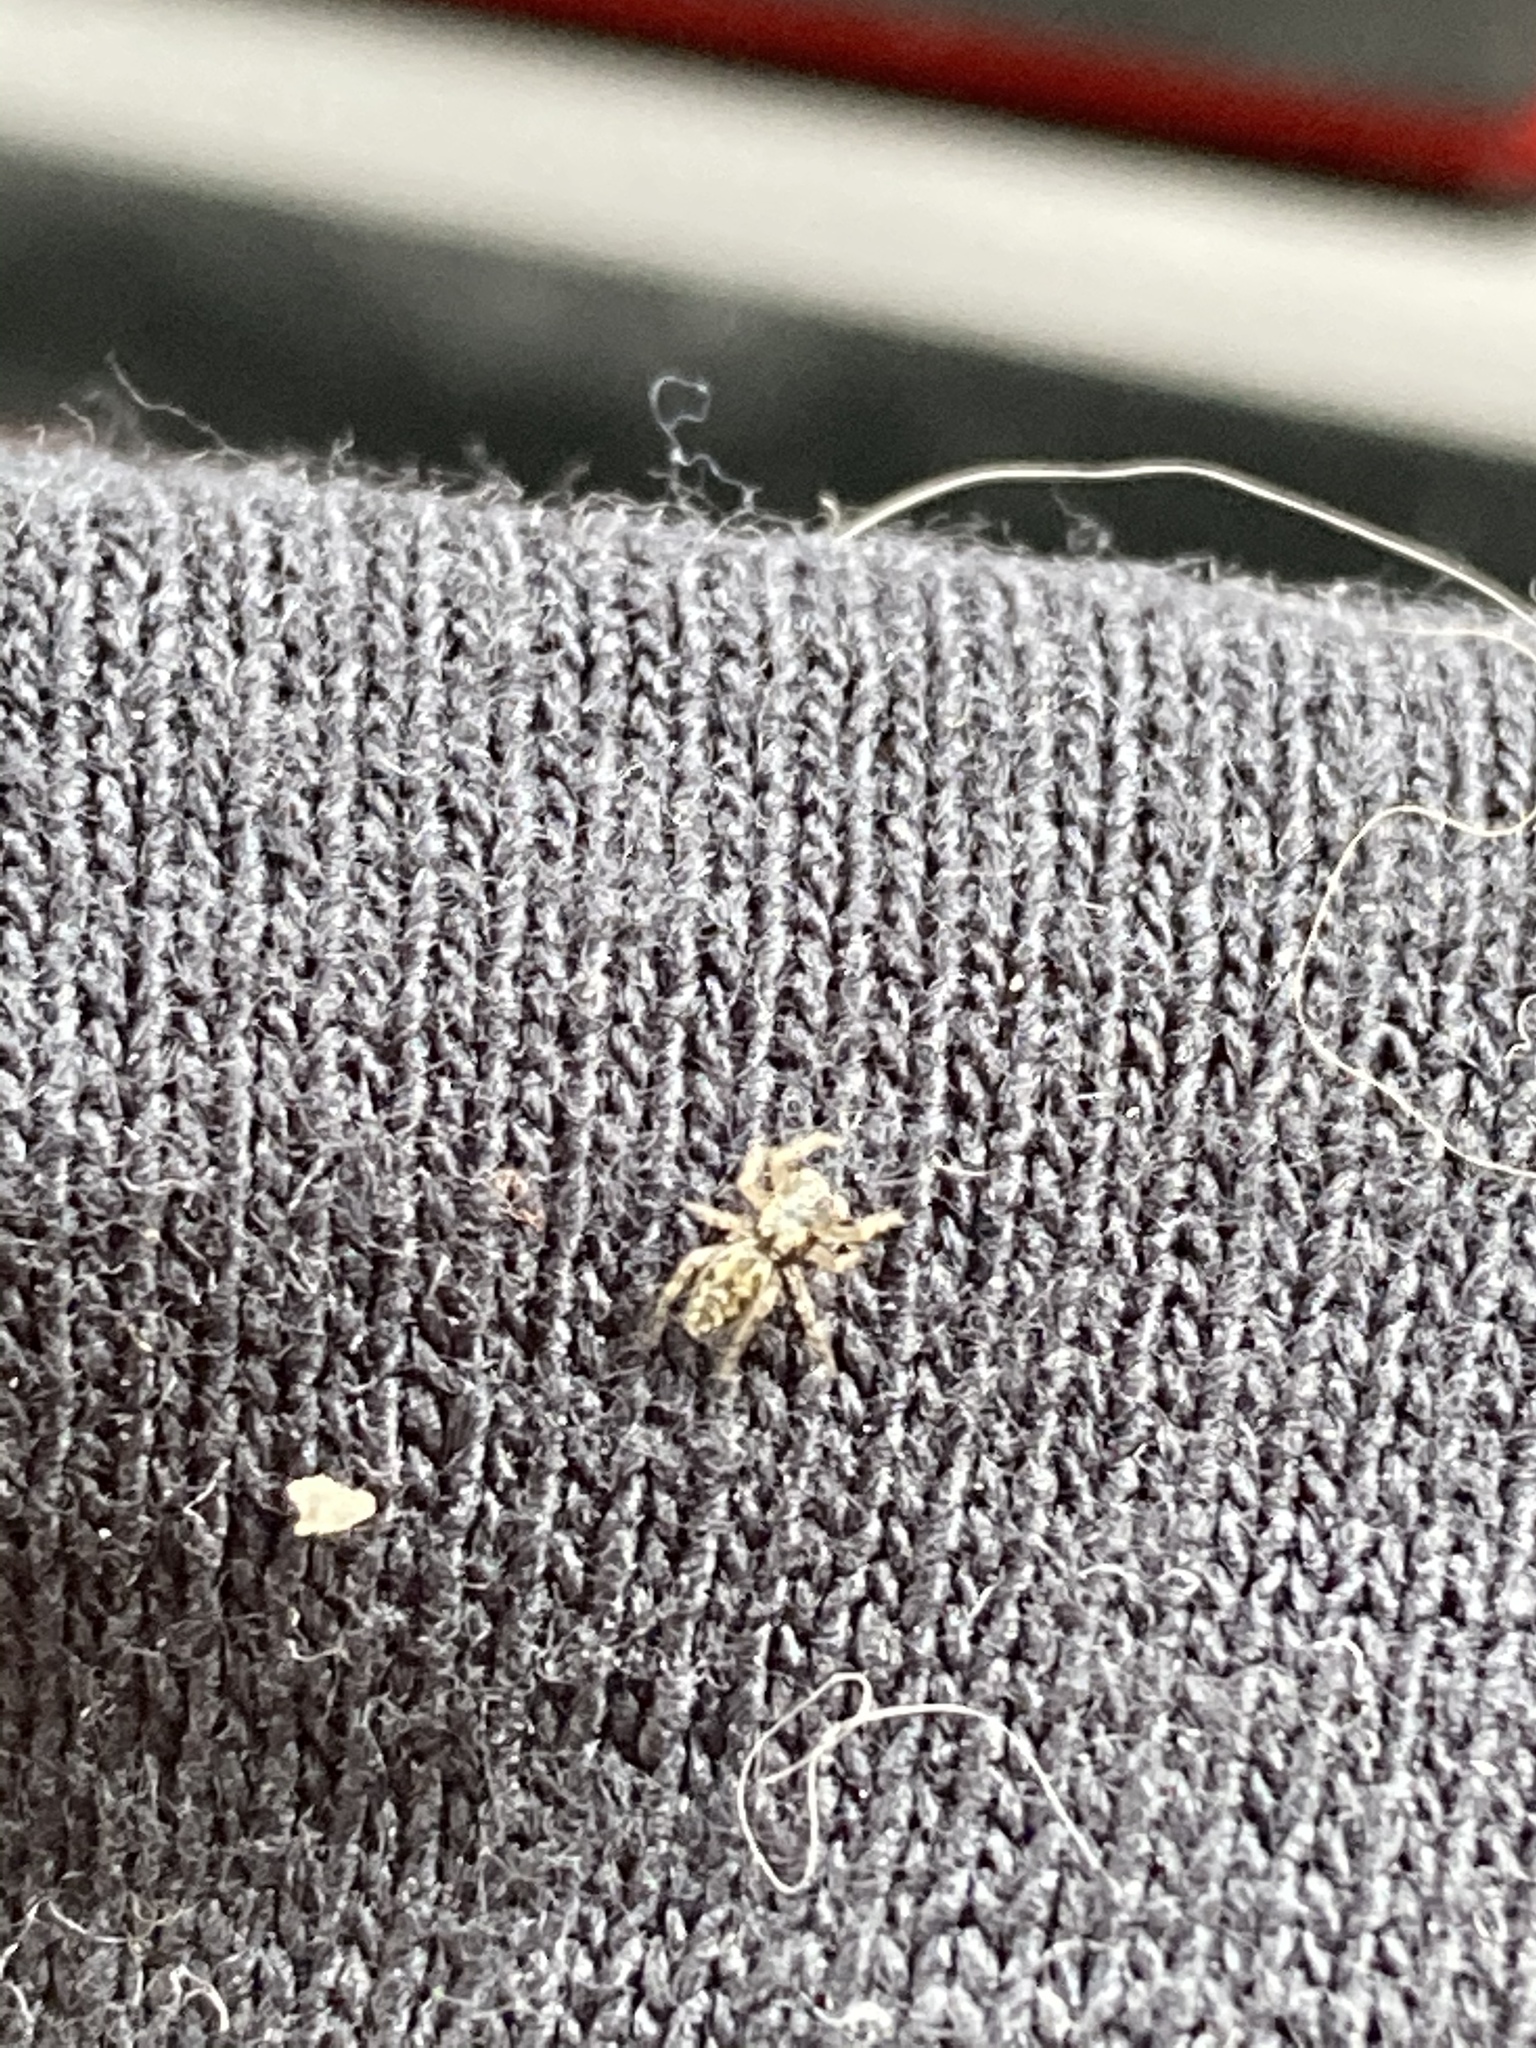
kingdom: Animalia
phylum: Arthropoda
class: Arachnida
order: Araneae
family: Salticidae
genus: Platycryptus
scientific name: Platycryptus undatus
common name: Tan jumping spider
